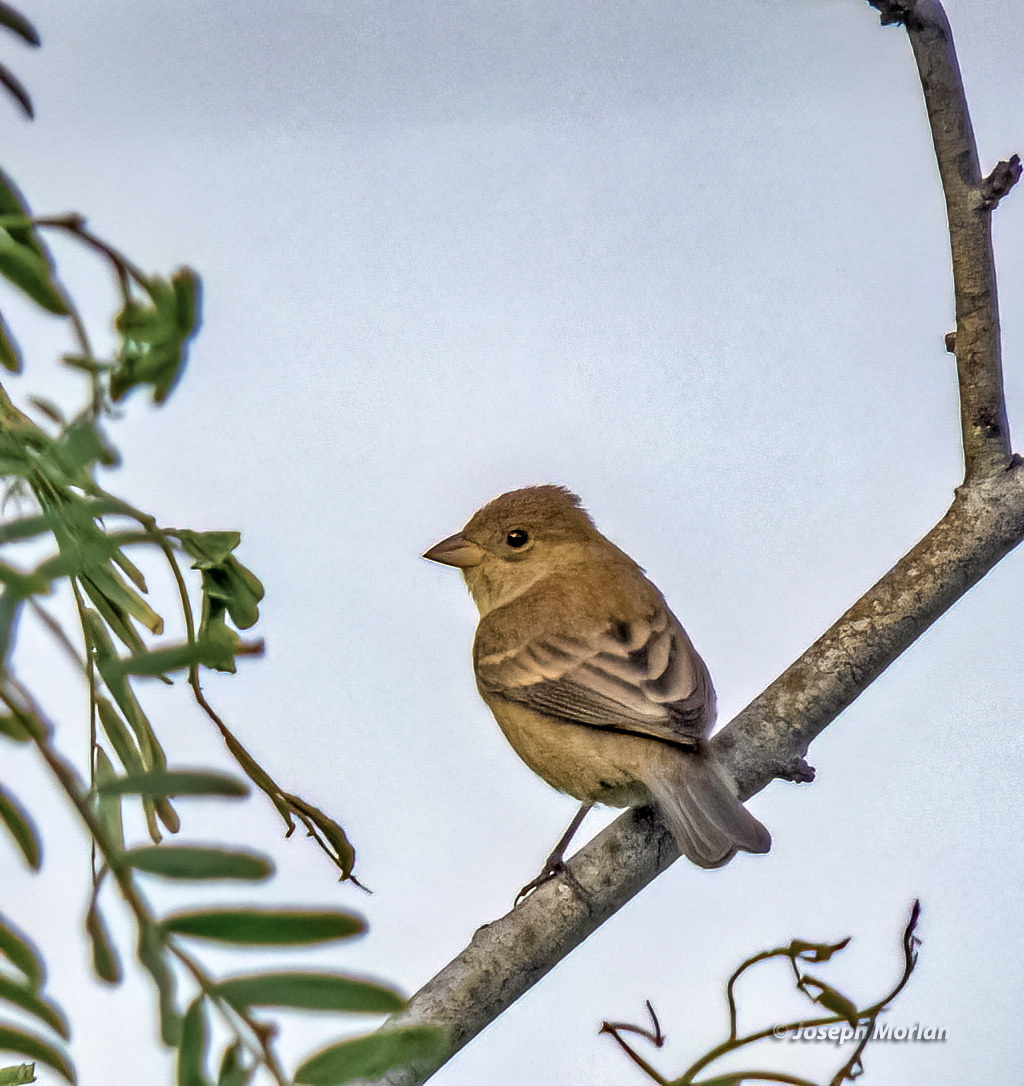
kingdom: Animalia
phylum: Chordata
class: Aves
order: Passeriformes
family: Cardinalidae
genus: Passerina
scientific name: Passerina cyanea
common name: Indigo bunting
